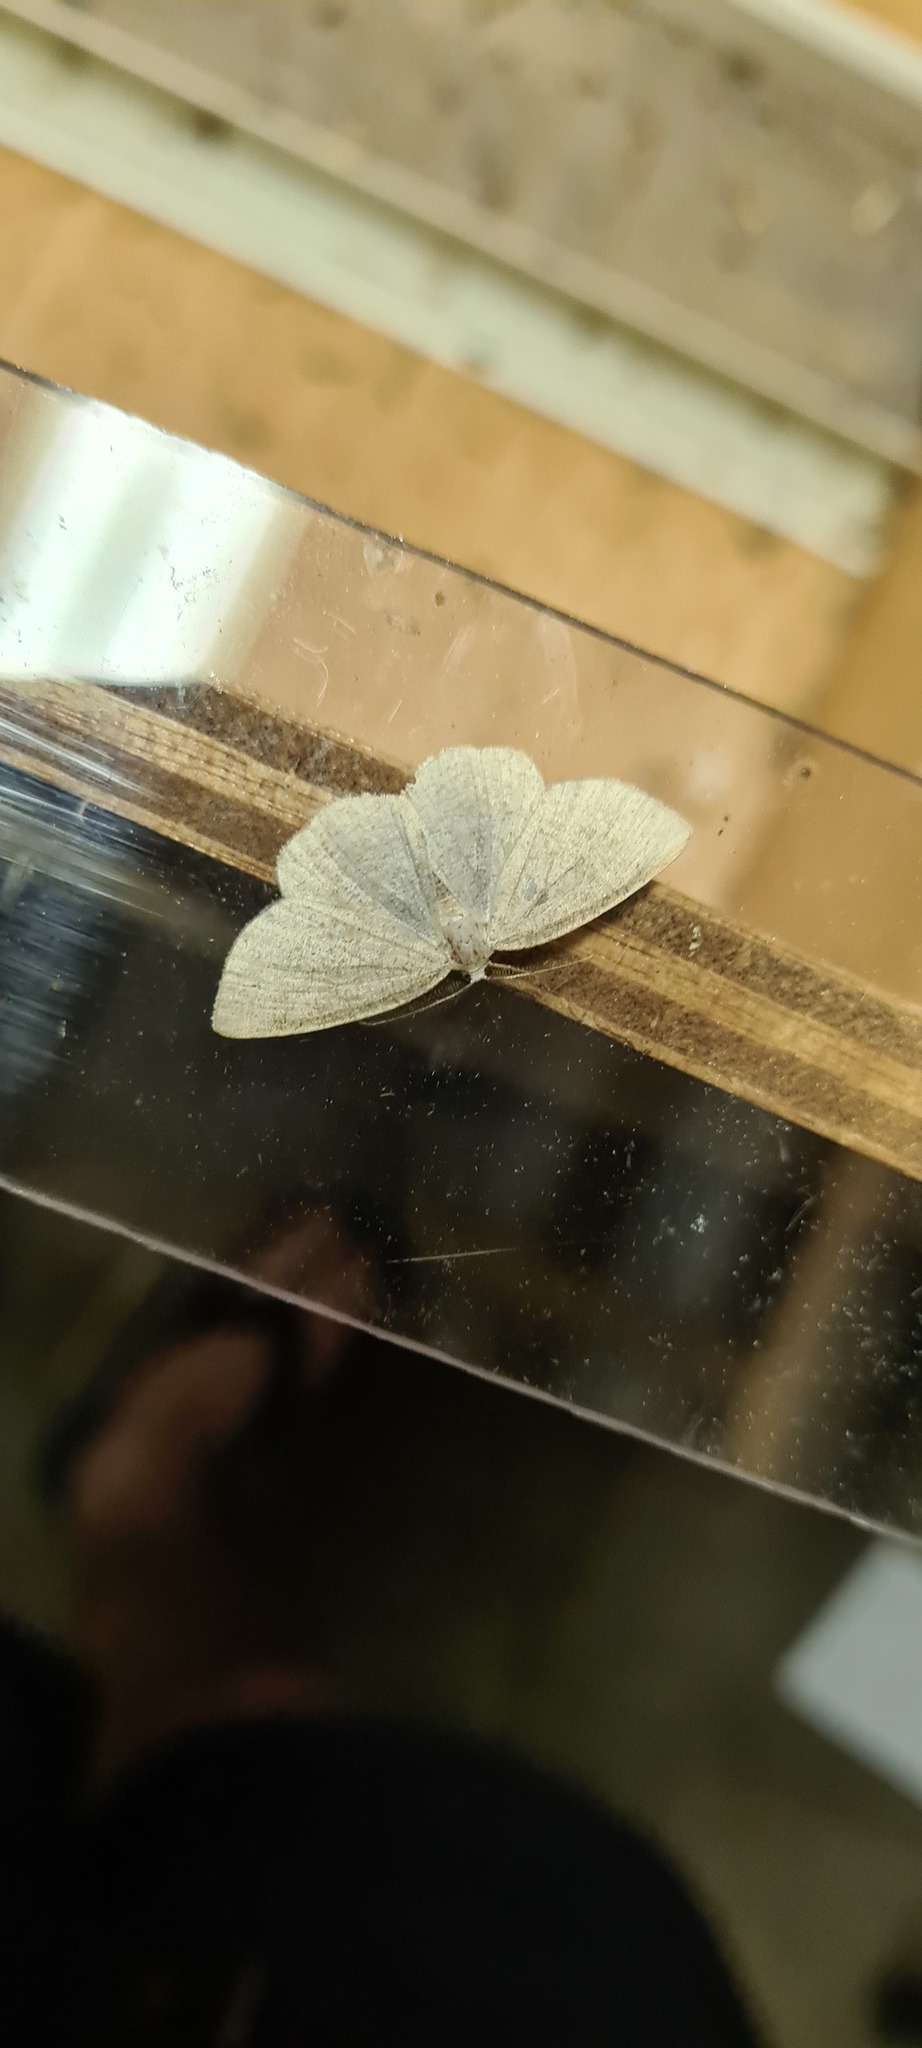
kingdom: Animalia
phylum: Arthropoda
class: Insecta
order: Lepidoptera
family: Geometridae
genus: Cabera
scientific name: Cabera exanthemata
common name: Common wave
